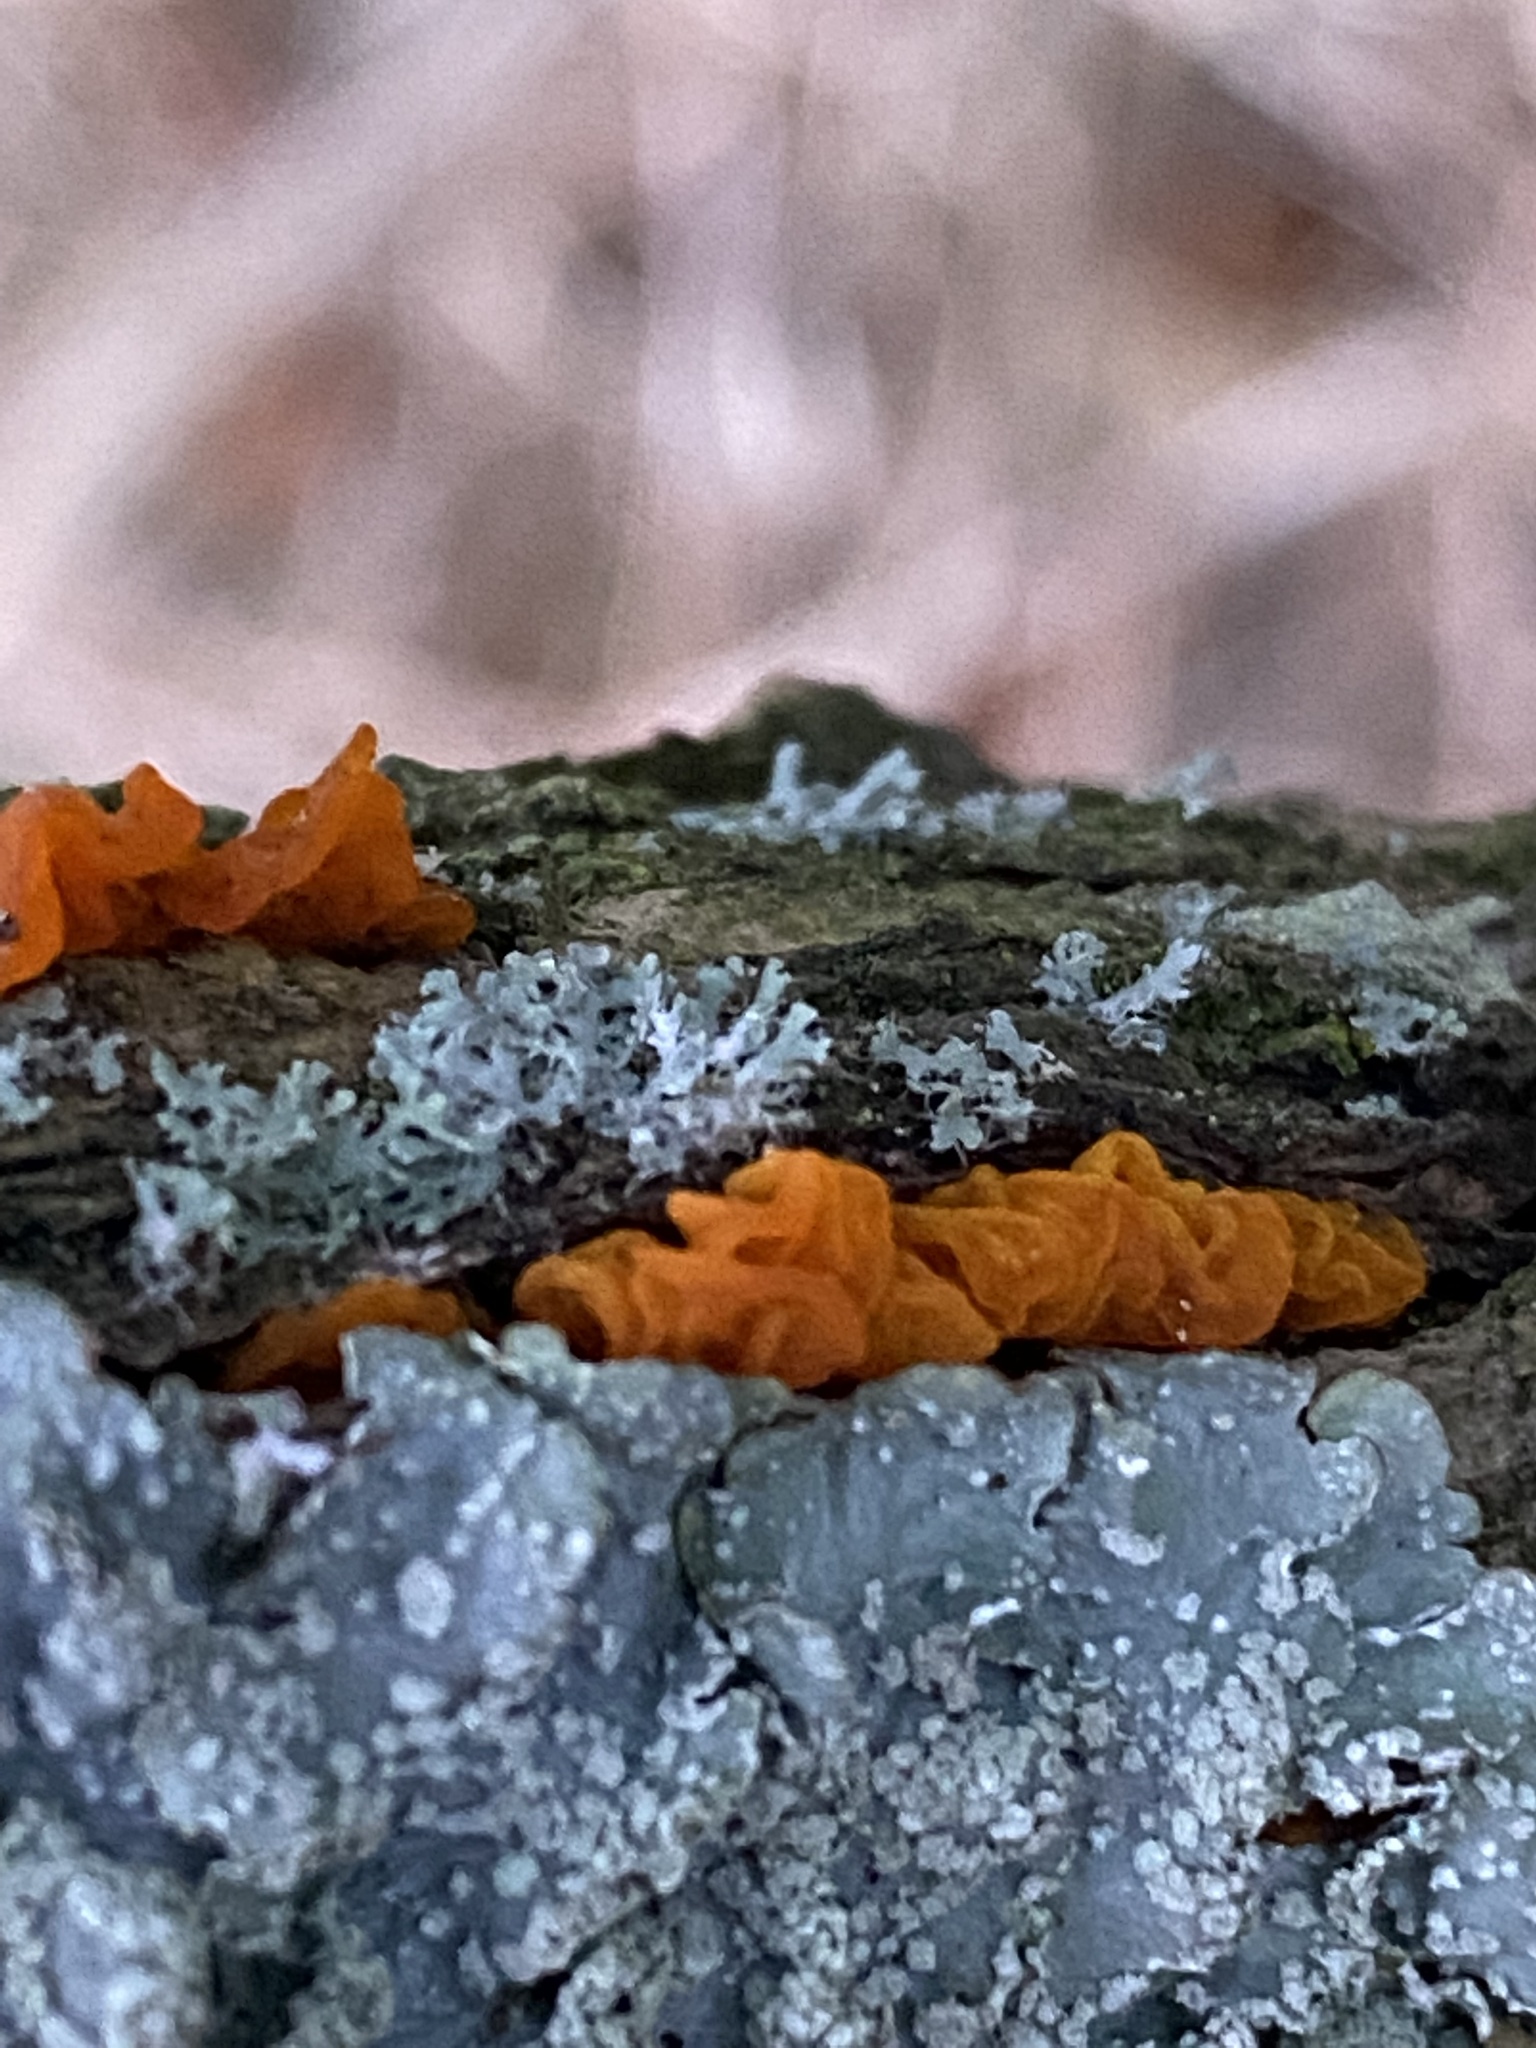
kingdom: Fungi
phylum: Basidiomycota
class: Tremellomycetes
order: Tremellales
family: Tremellaceae
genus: Tremella
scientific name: Tremella mesenterica
